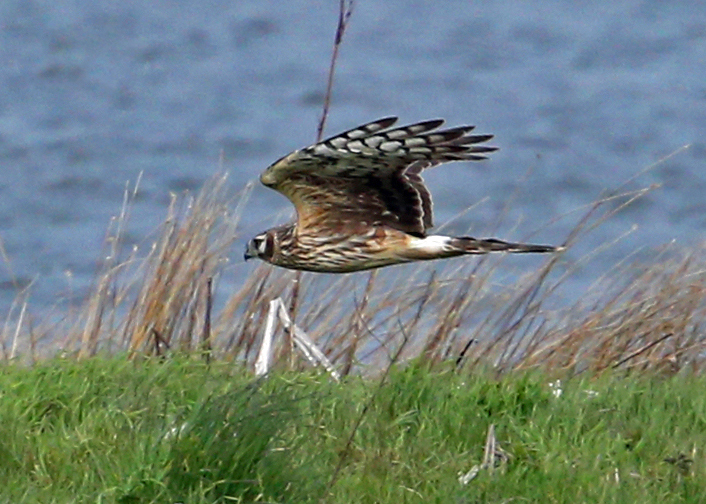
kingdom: Animalia
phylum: Chordata
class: Aves
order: Accipitriformes
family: Accipitridae
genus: Circus
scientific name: Circus cyaneus
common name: Hen harrier
